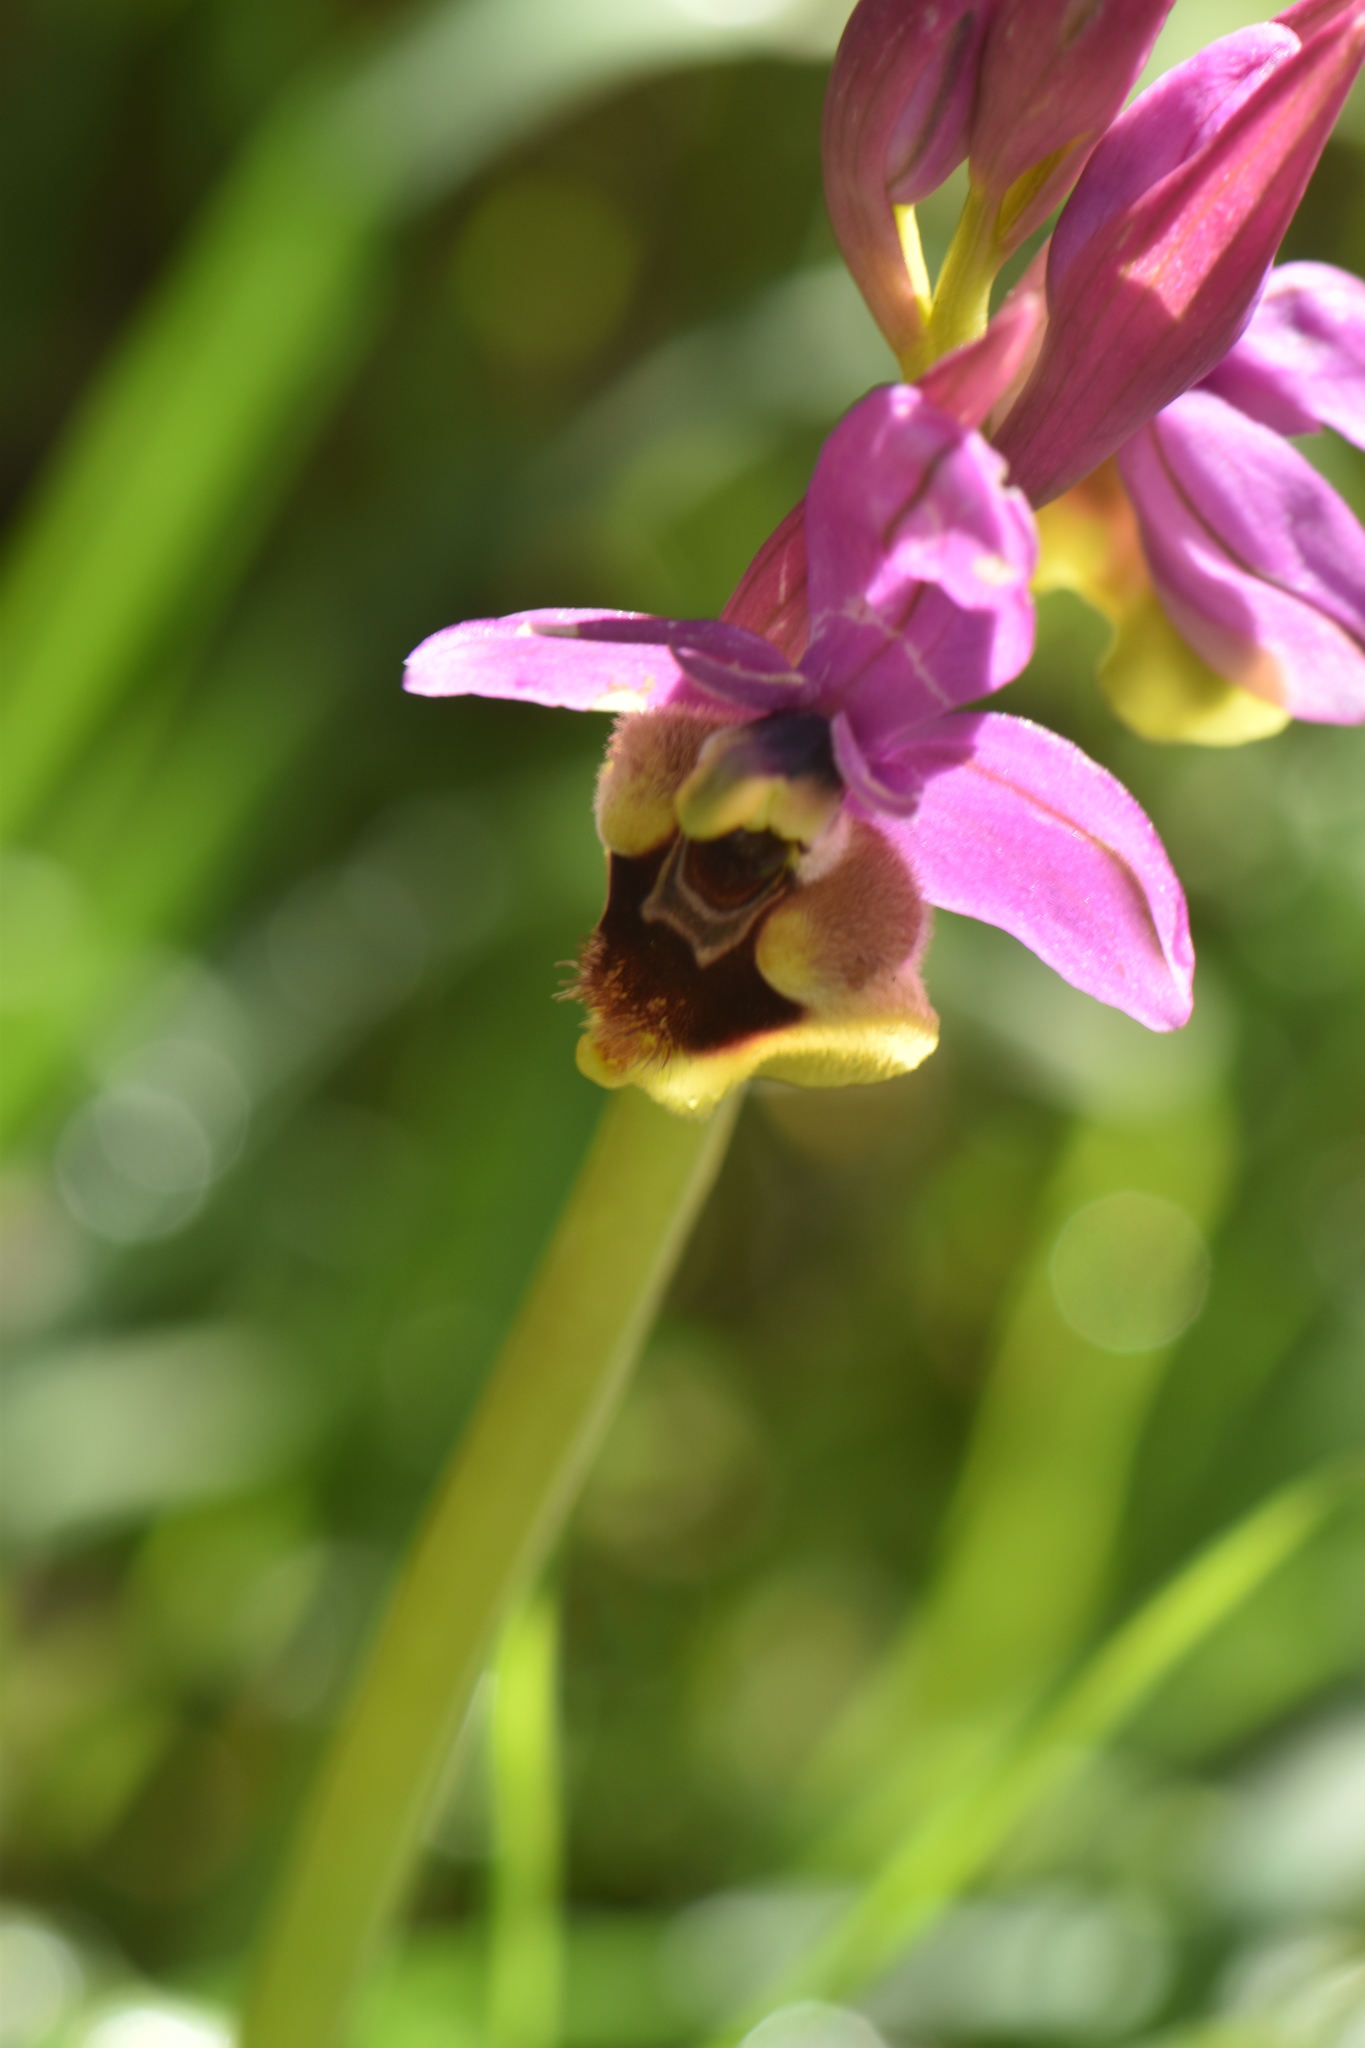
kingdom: Plantae
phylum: Tracheophyta
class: Liliopsida
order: Asparagales
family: Orchidaceae
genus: Ophrys
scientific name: Ophrys tenthredinifera
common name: Sawfly orchid
